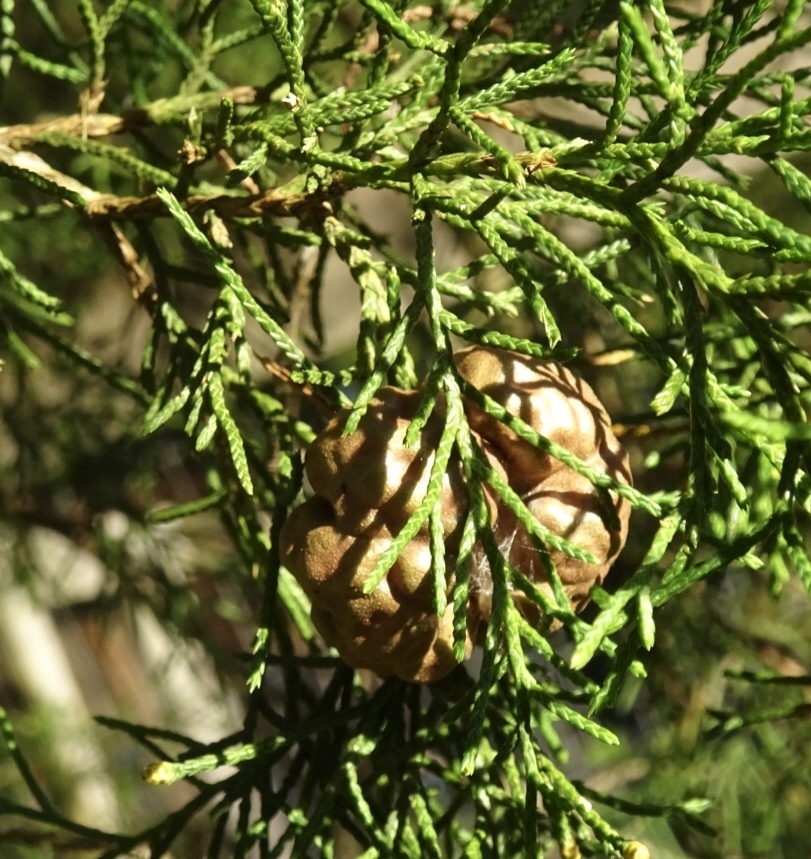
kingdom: Fungi
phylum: Basidiomycota
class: Pucciniomycetes
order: Pucciniales
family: Gymnosporangiaceae
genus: Gymnosporangium
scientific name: Gymnosporangium juniperi-virginianae
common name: Juniper-apple rust
